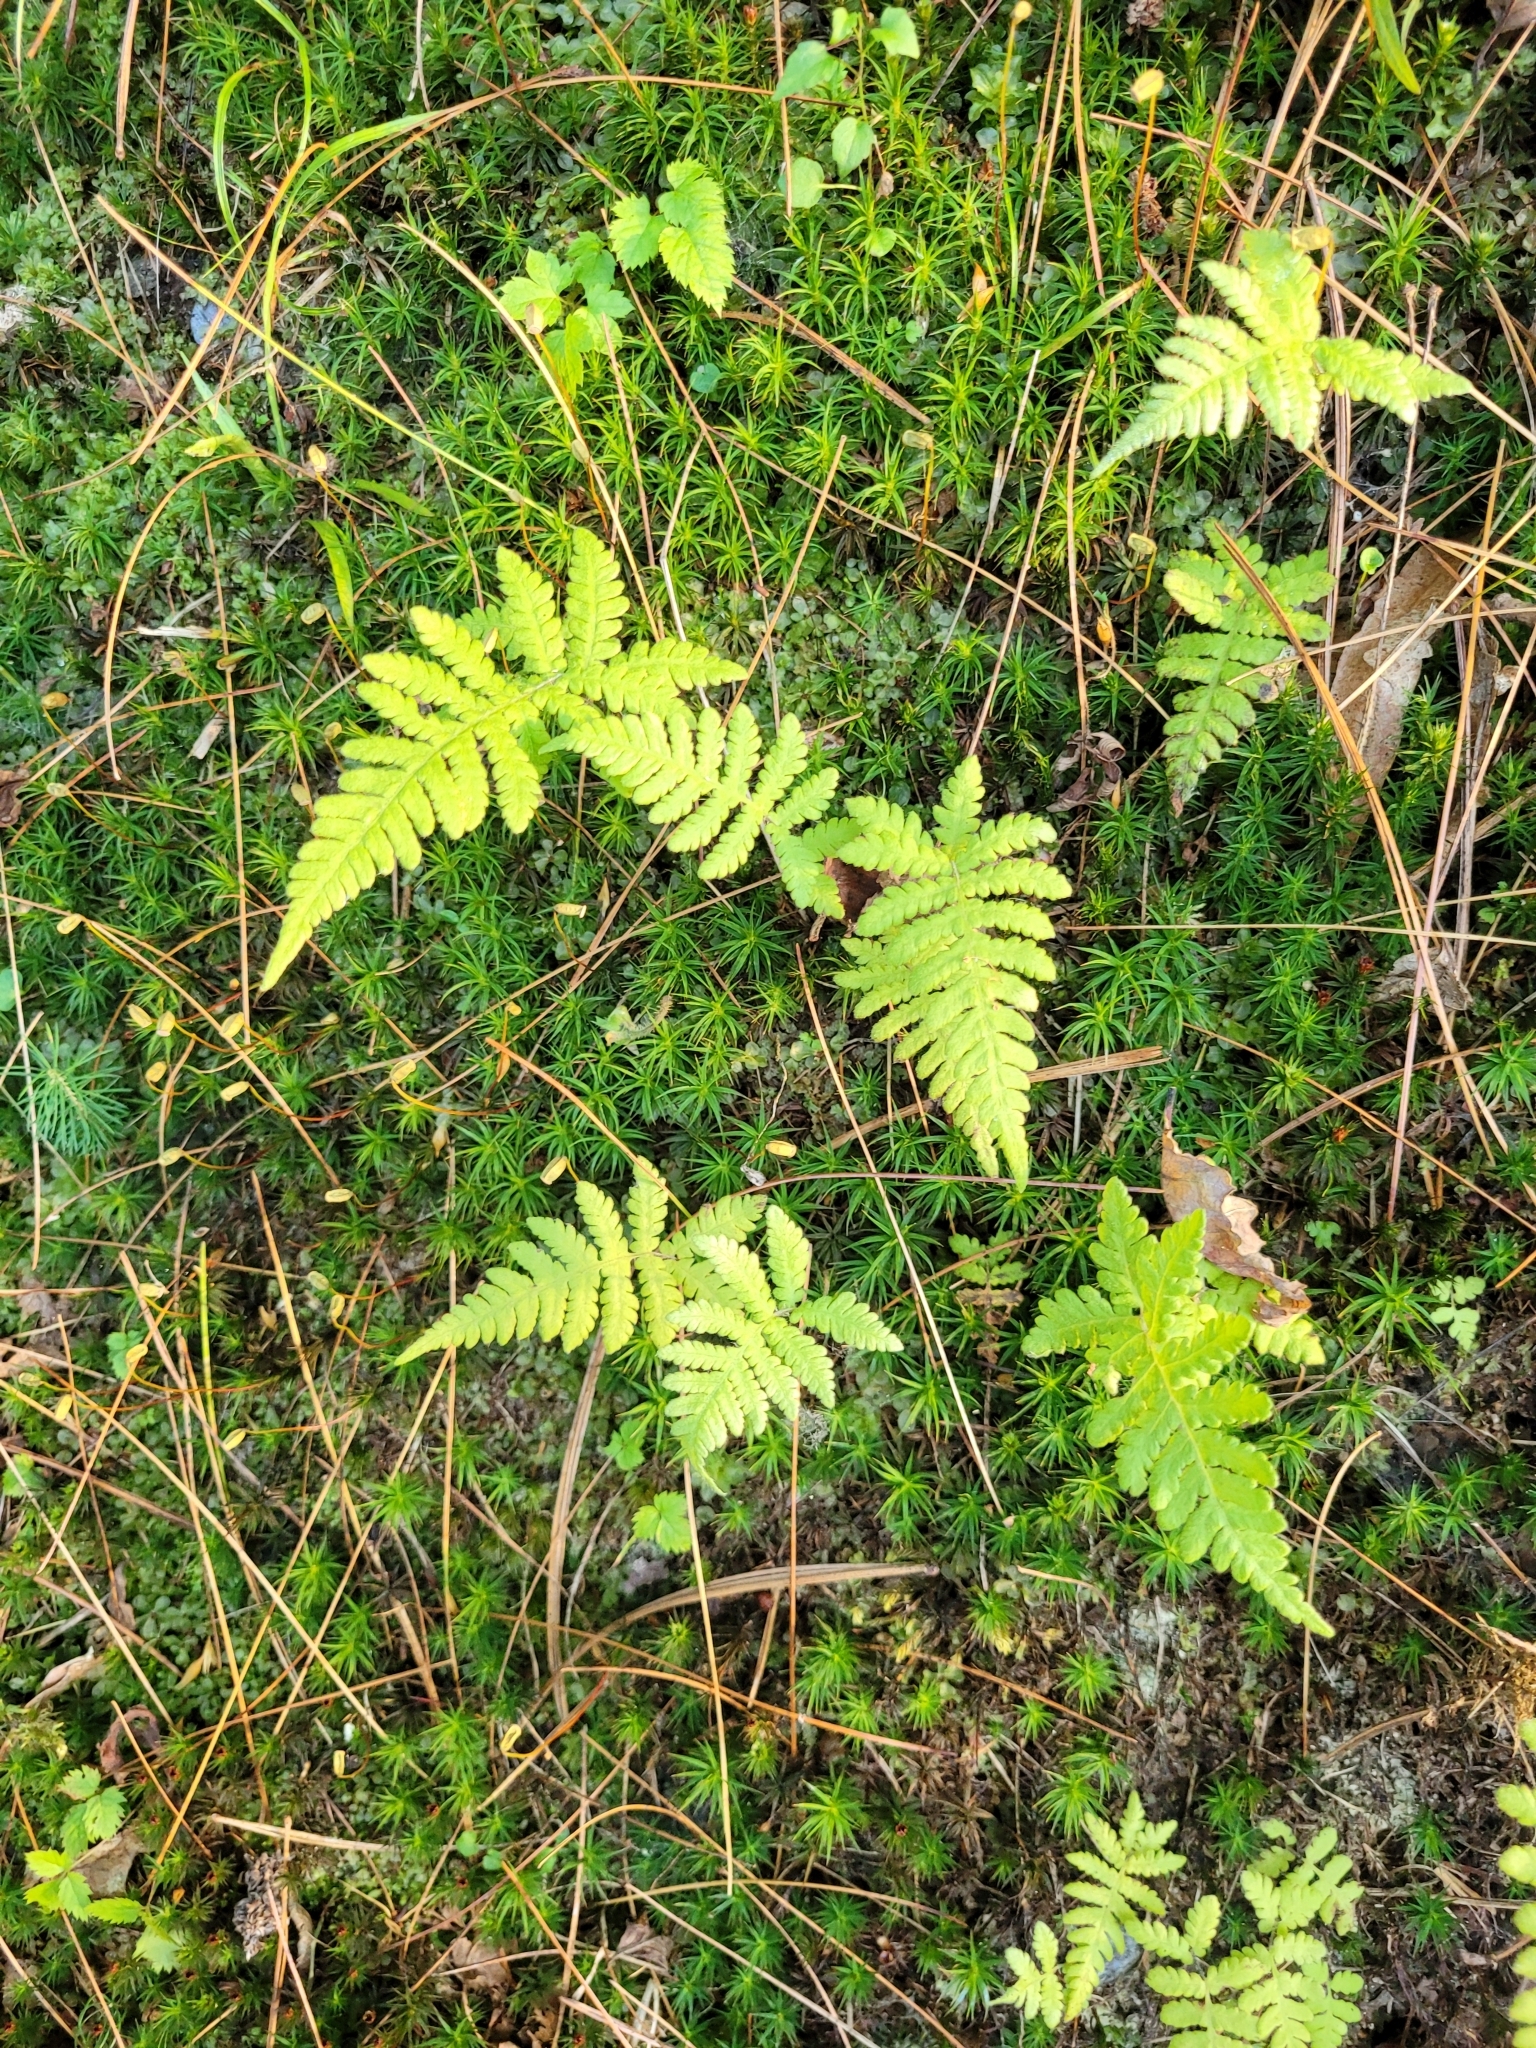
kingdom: Plantae
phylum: Tracheophyta
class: Polypodiopsida
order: Polypodiales
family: Thelypteridaceae
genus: Phegopteris
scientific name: Phegopteris connectilis
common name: Beech fern
